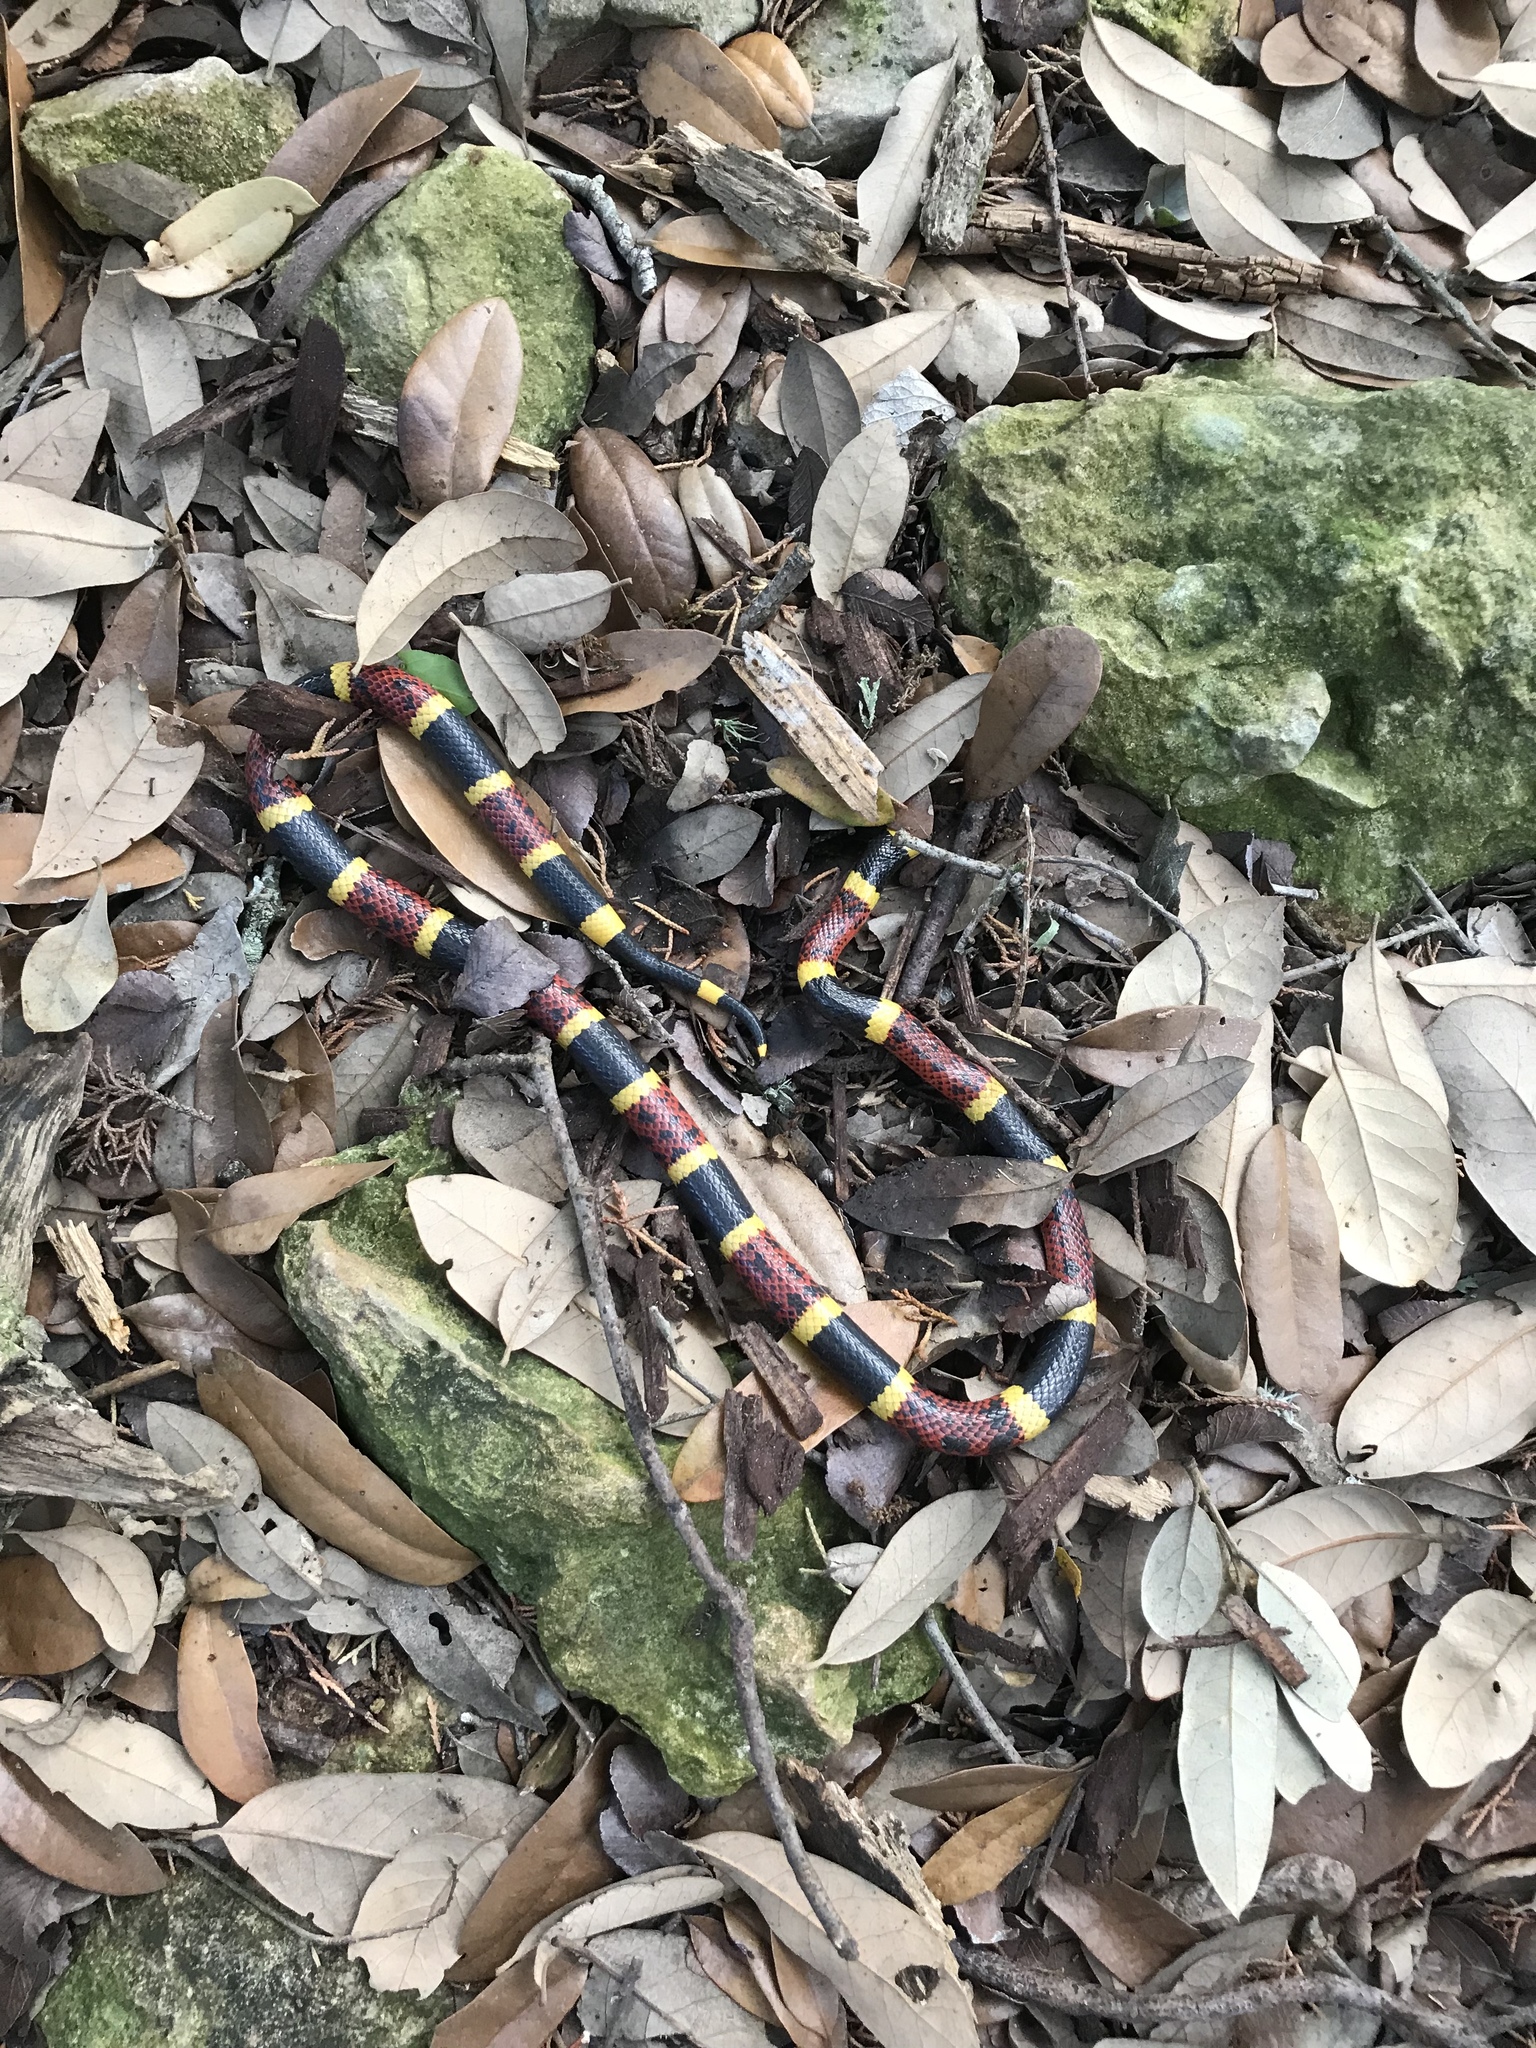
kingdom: Animalia
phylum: Chordata
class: Squamata
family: Elapidae
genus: Micrurus
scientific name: Micrurus tener
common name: Texas coral snake
